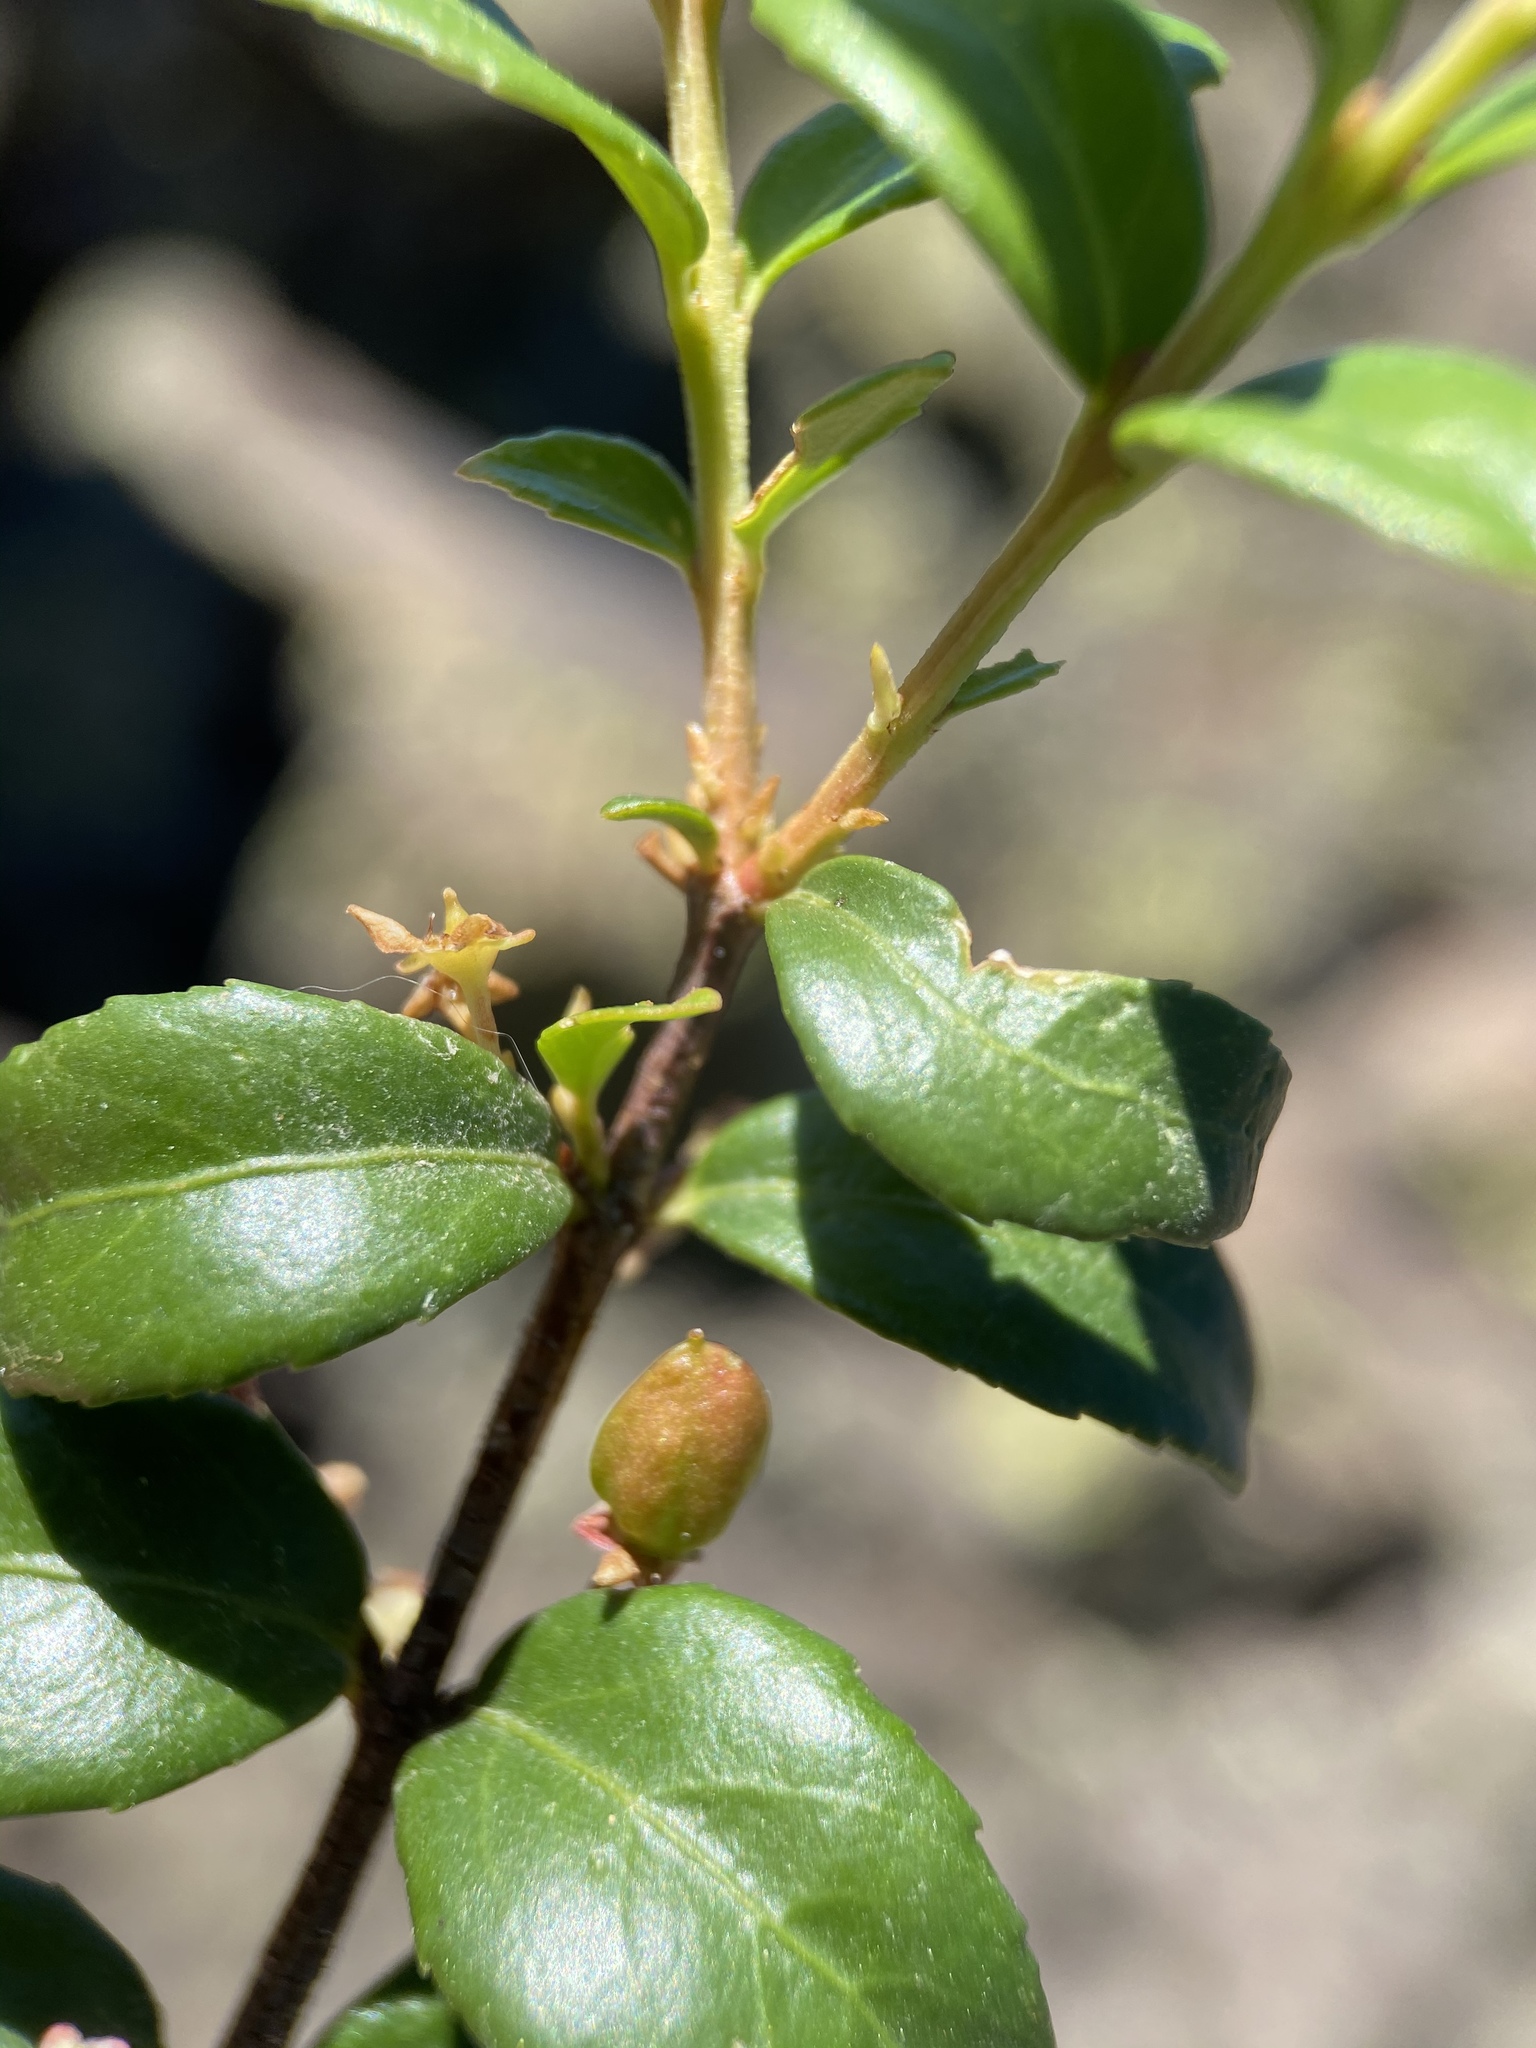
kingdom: Plantae
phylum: Tracheophyta
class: Magnoliopsida
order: Celastrales
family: Celastraceae
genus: Paxistima
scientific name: Paxistima myrsinites
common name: Mountain-lover
